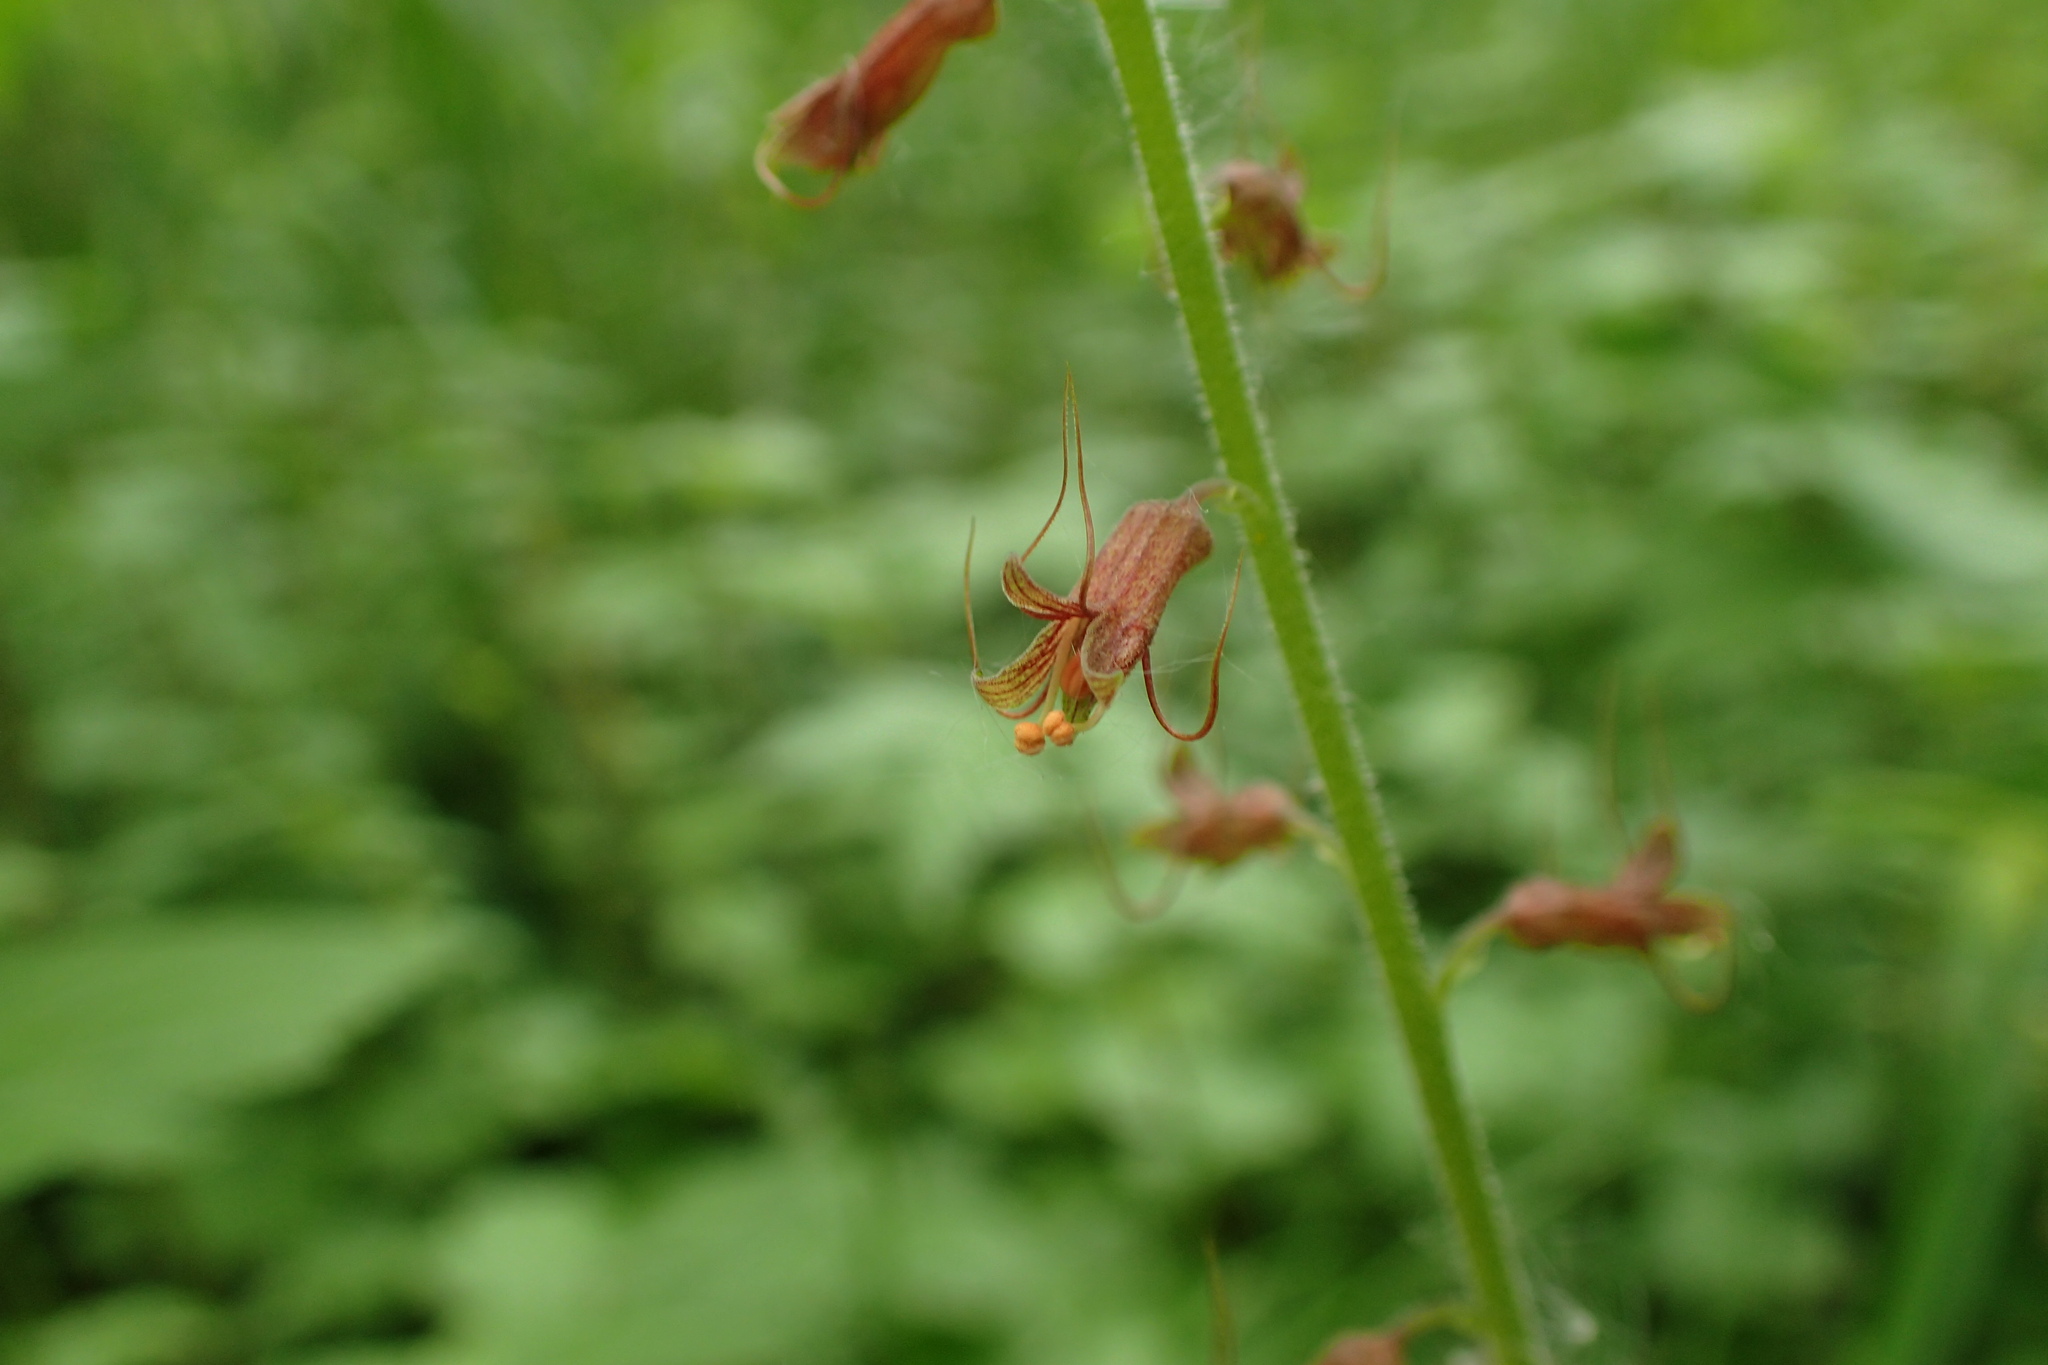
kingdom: Plantae
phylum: Tracheophyta
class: Magnoliopsida
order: Saxifragales
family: Saxifragaceae
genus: Tolmiea
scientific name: Tolmiea menziesii
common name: Pick-a-back-plant
